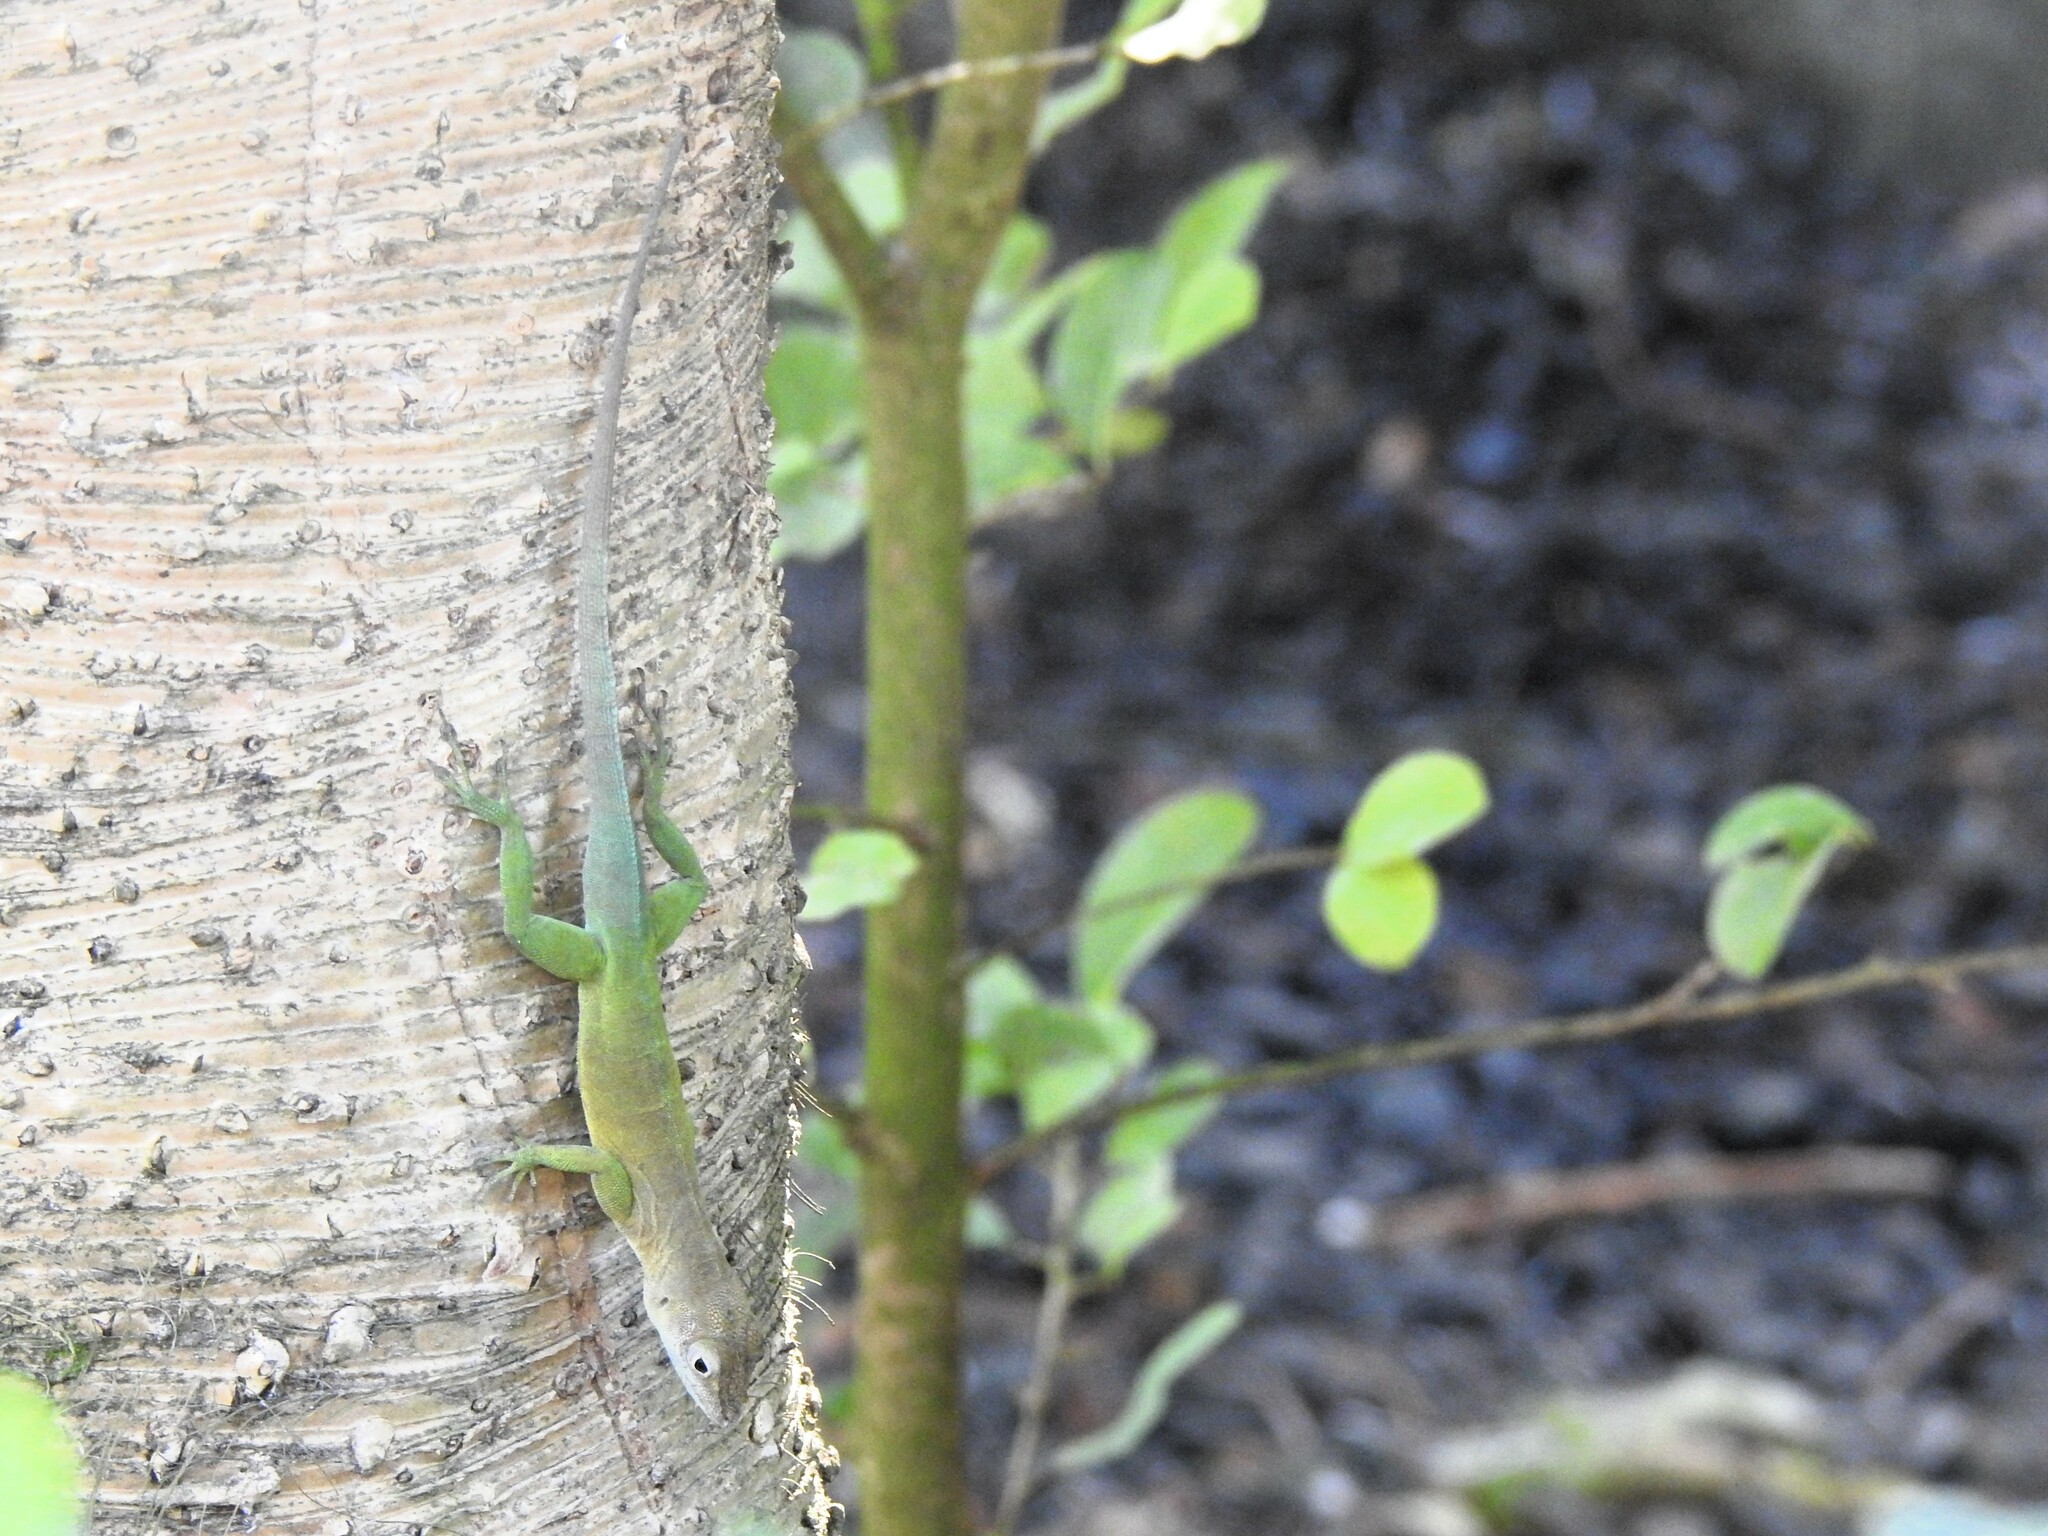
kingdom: Animalia
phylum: Chordata
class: Squamata
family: Dactyloidae
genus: Anolis
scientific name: Anolis marmoratus
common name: Guadeloupe anole
